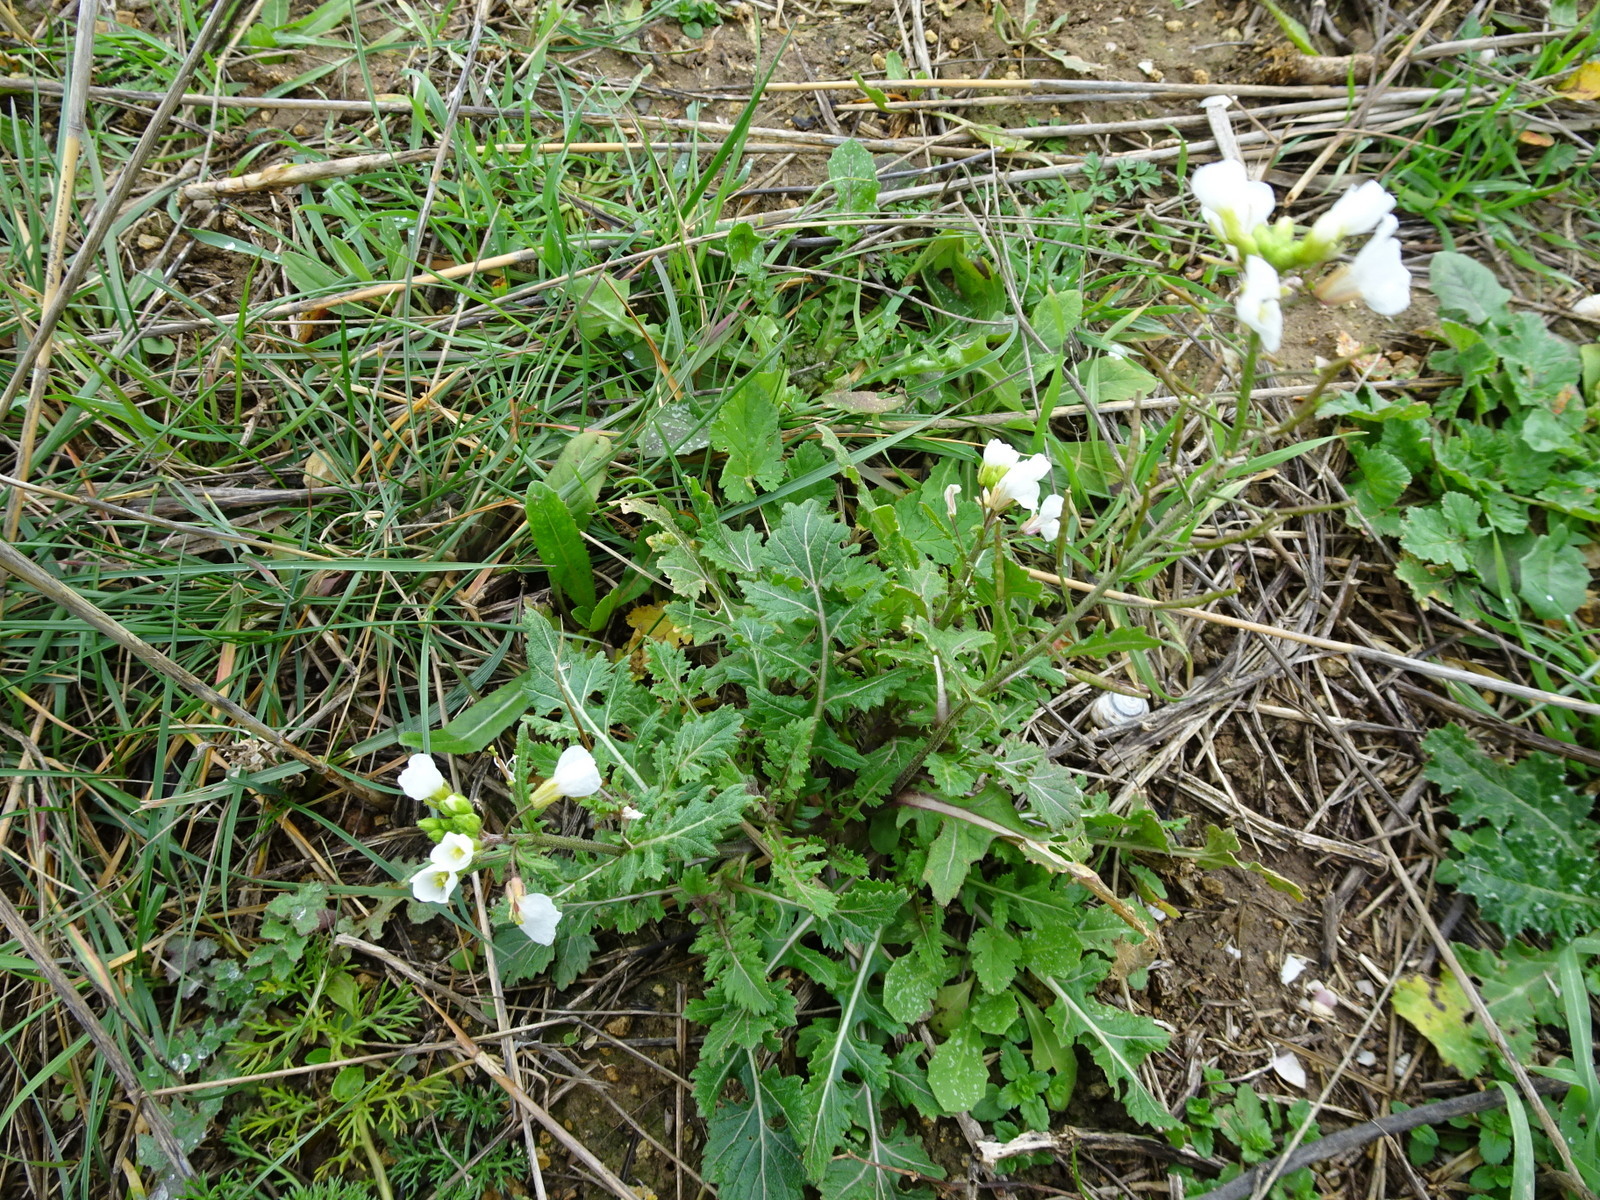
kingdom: Plantae
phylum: Tracheophyta
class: Magnoliopsida
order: Brassicales
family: Brassicaceae
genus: Diplotaxis
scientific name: Diplotaxis erucoides
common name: White rocket
